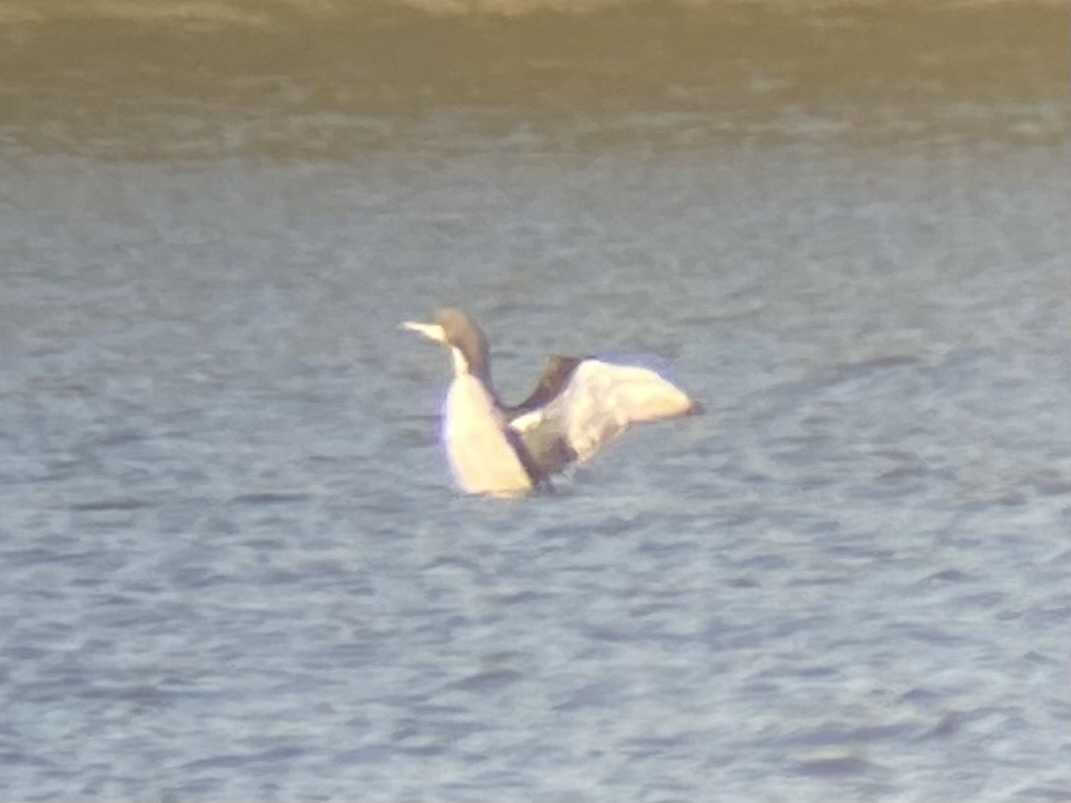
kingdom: Animalia
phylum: Chordata
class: Aves
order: Gaviiformes
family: Gaviidae
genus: Gavia
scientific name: Gavia pacifica
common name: Pacific loon
